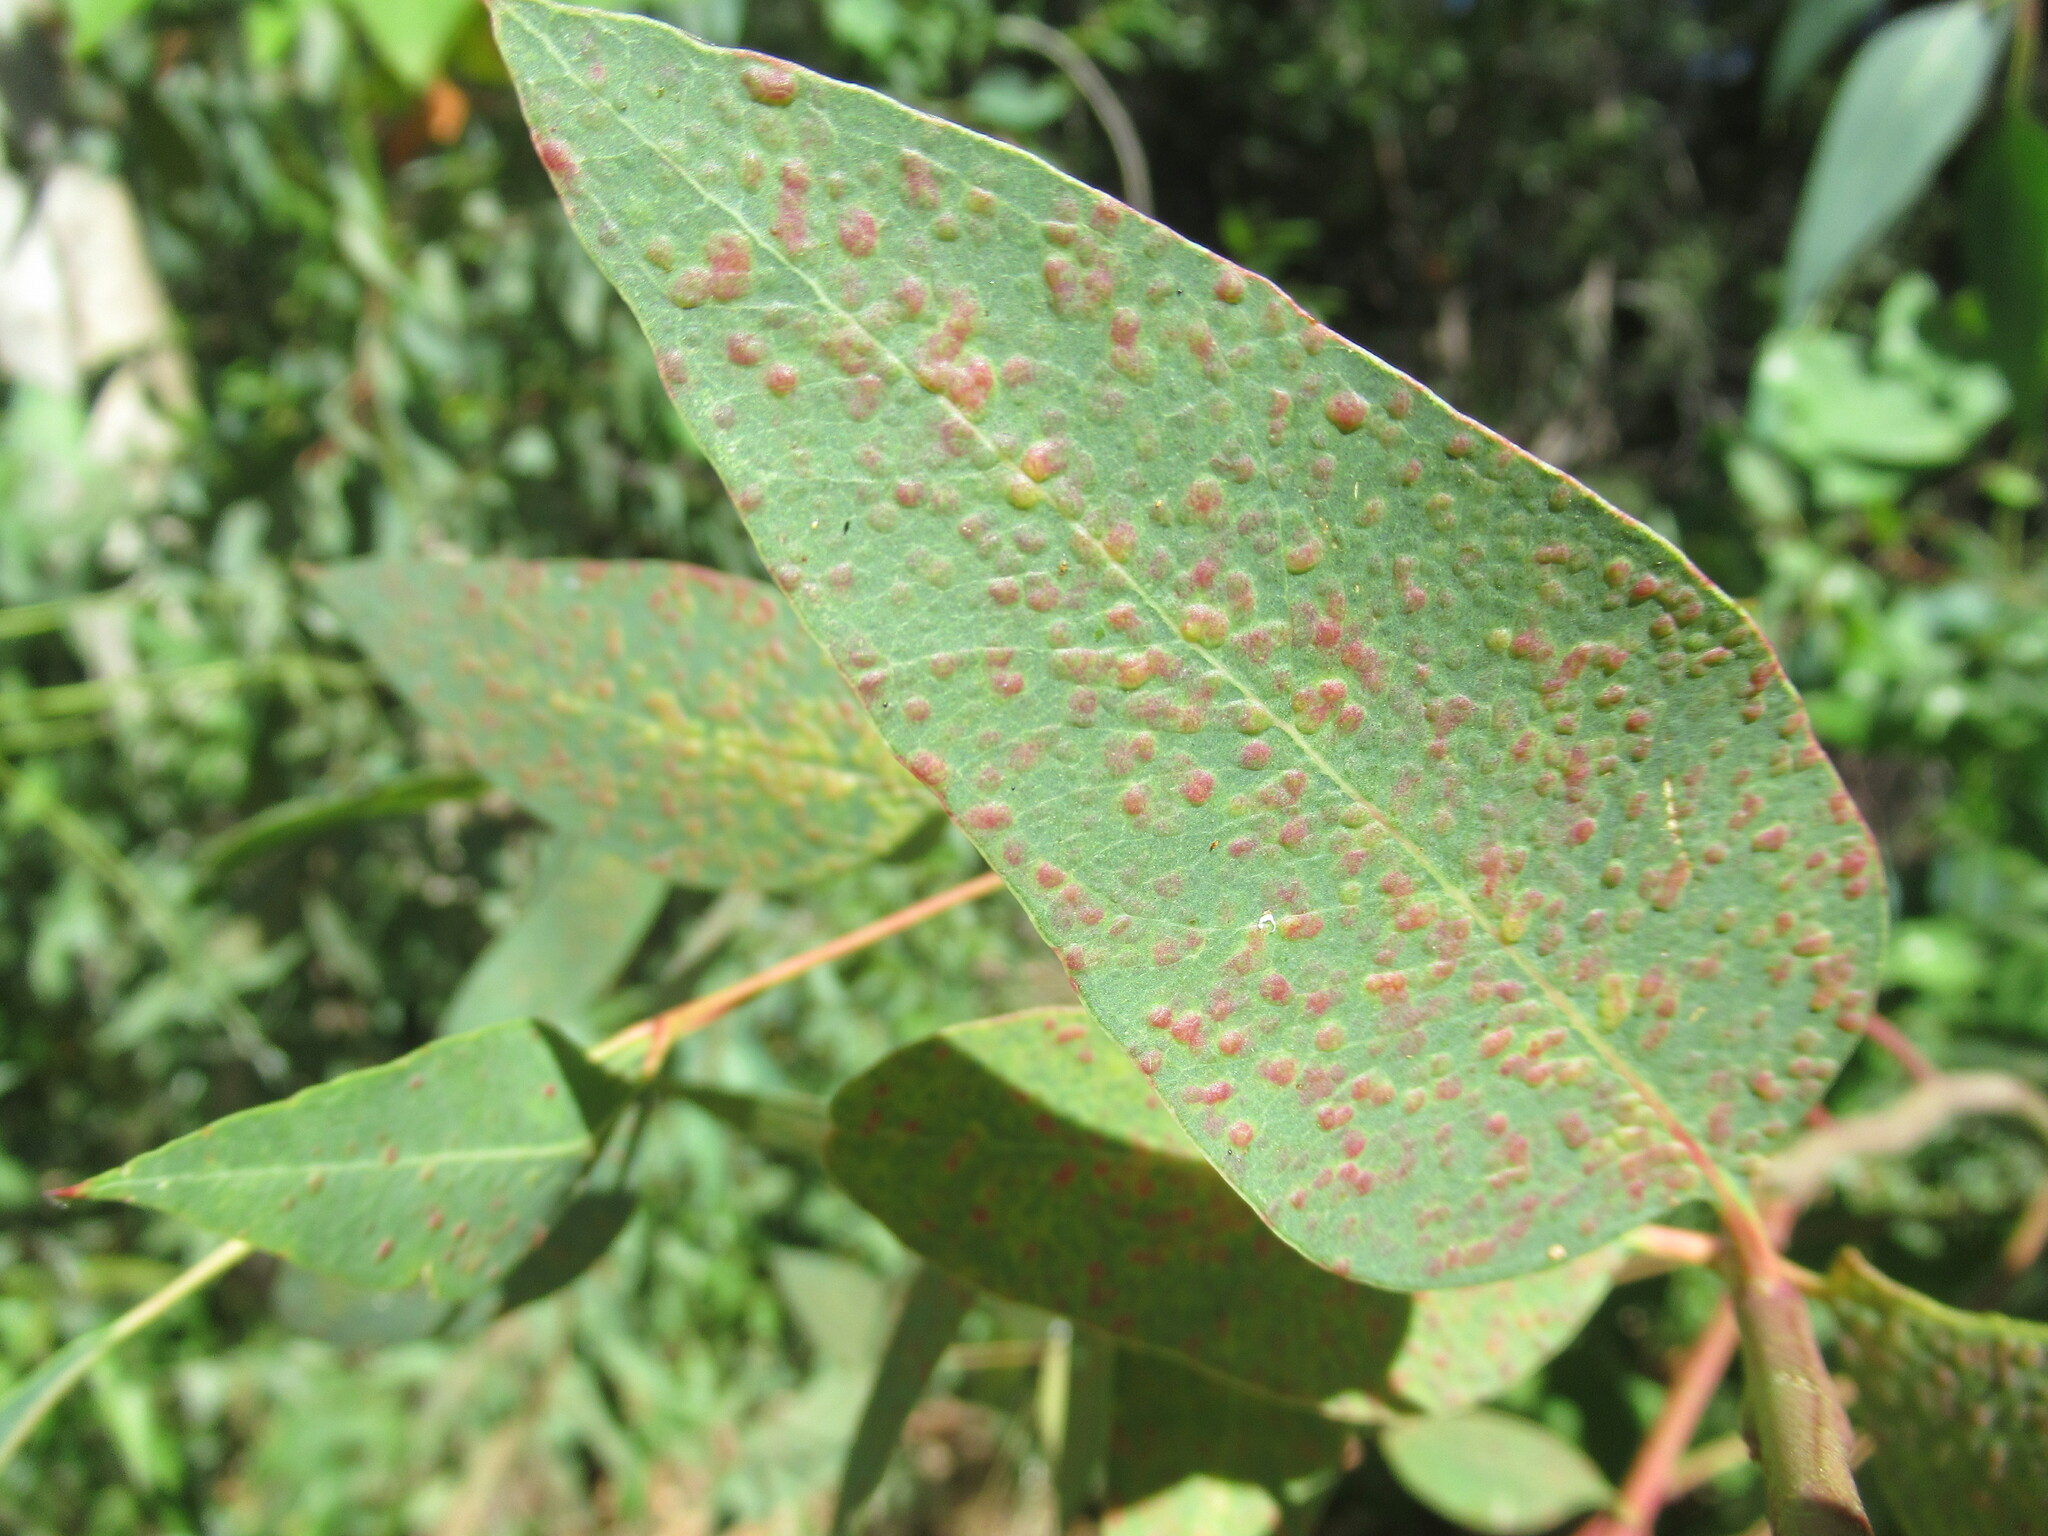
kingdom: Animalia
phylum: Arthropoda
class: Insecta
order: Hymenoptera
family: Eulophidae
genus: Ophelimus
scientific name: Ophelimus maskelli
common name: Gall wasp
